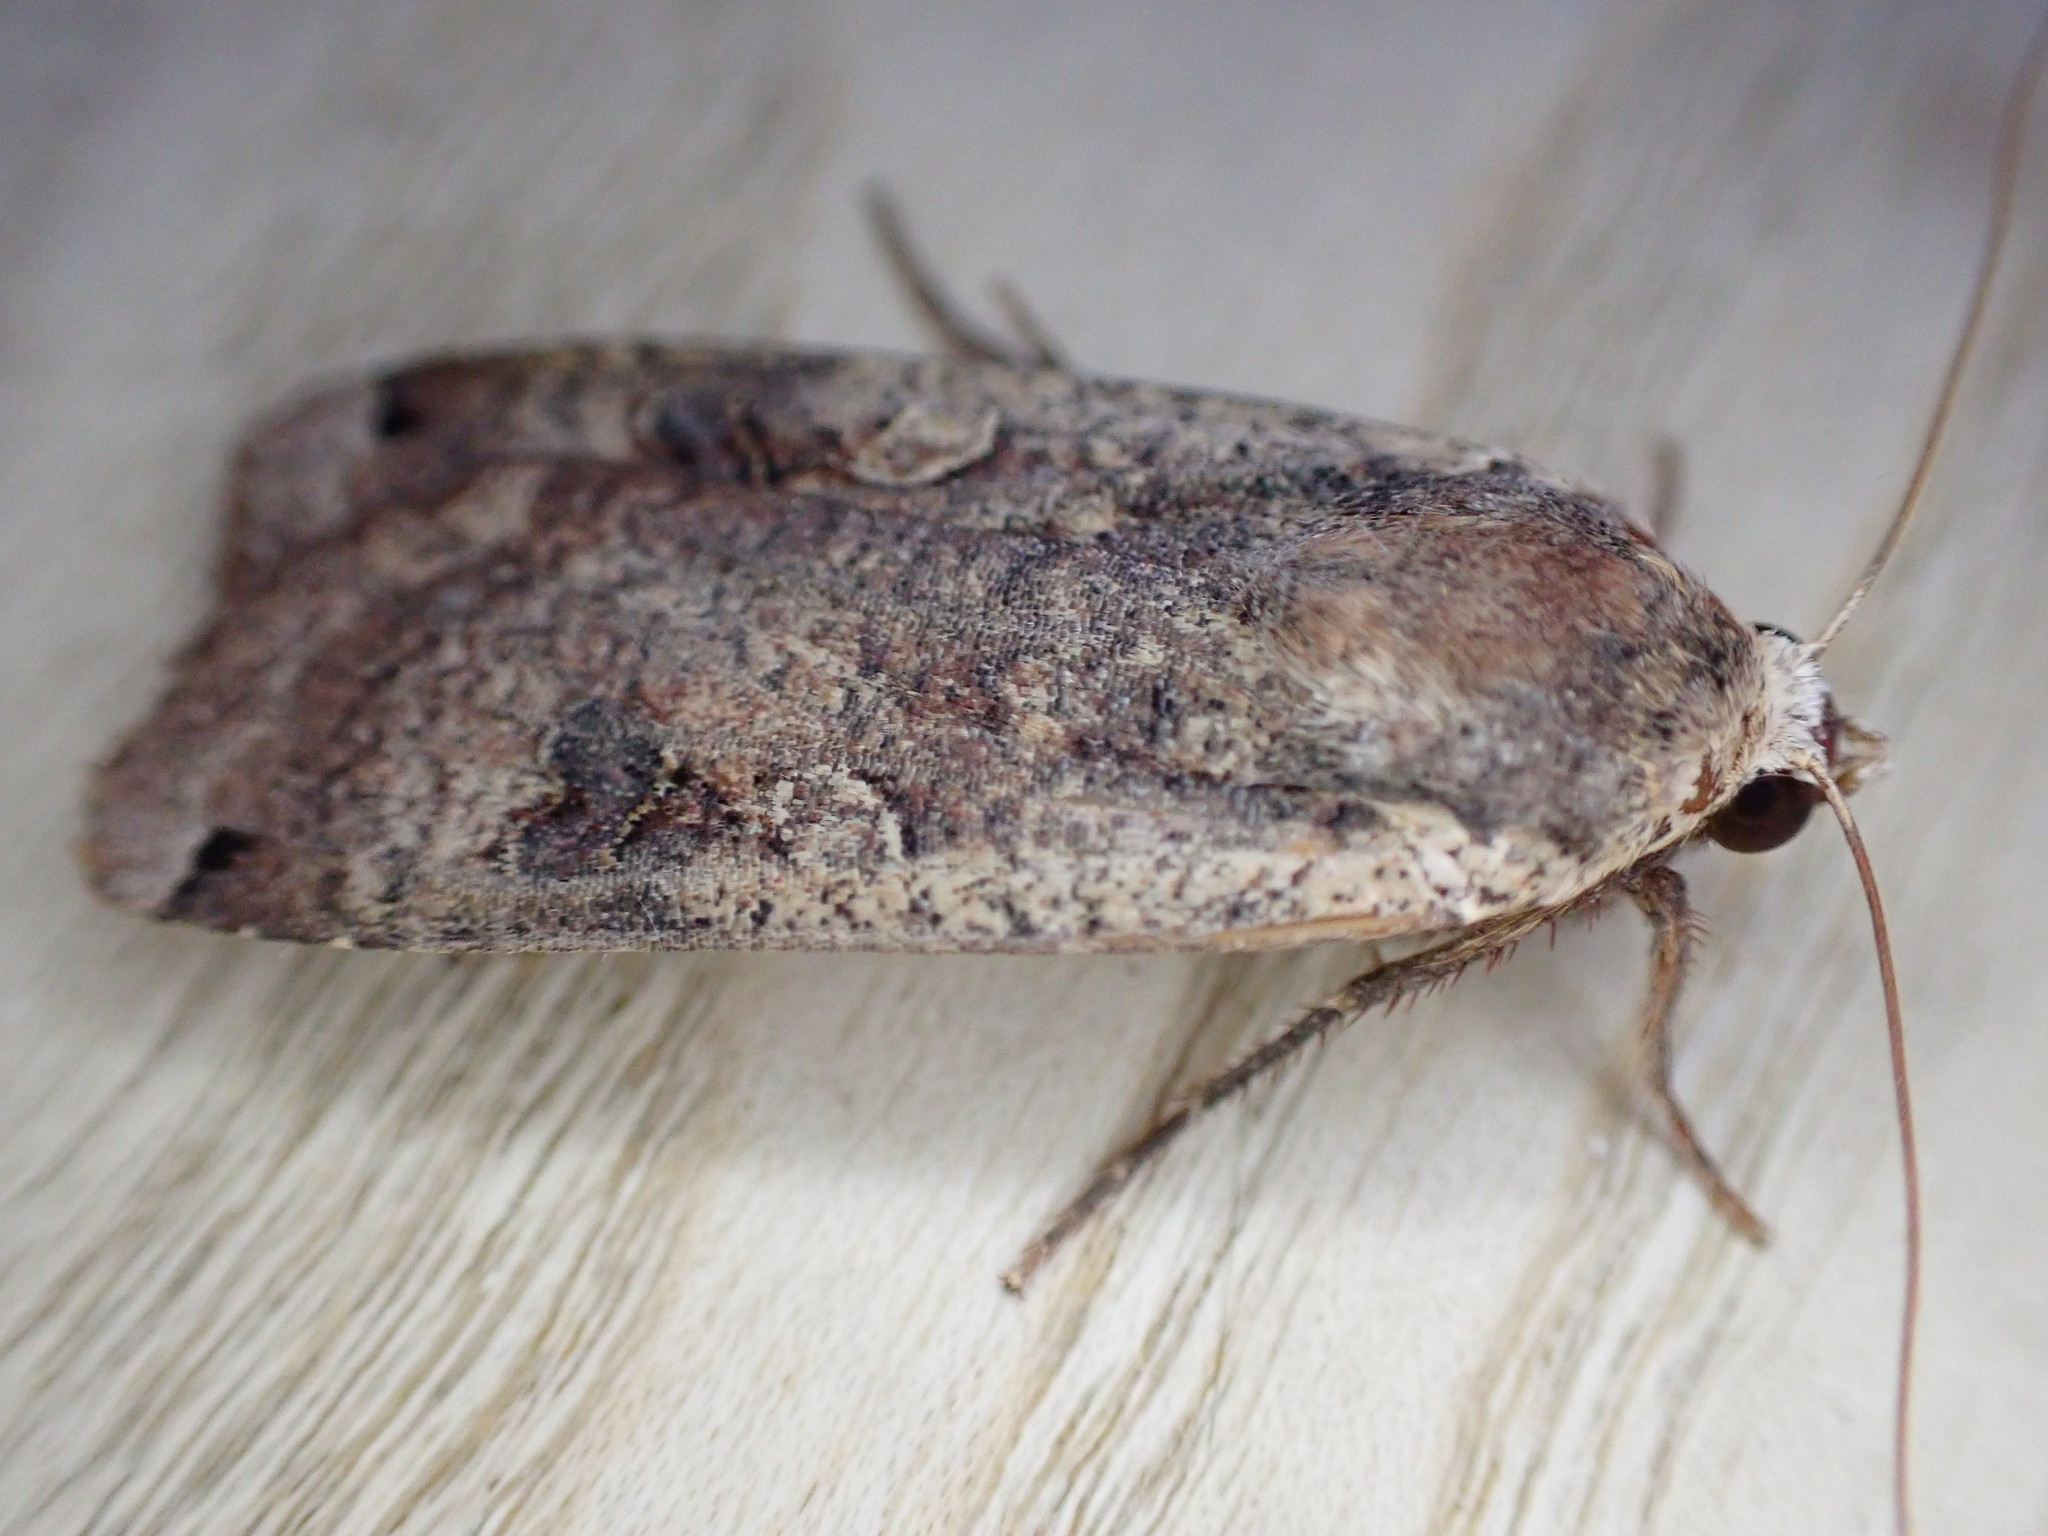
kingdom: Animalia
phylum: Arthropoda
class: Insecta
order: Lepidoptera
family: Noctuidae
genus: Noctua
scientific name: Noctua pronuba
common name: Large yellow underwing
